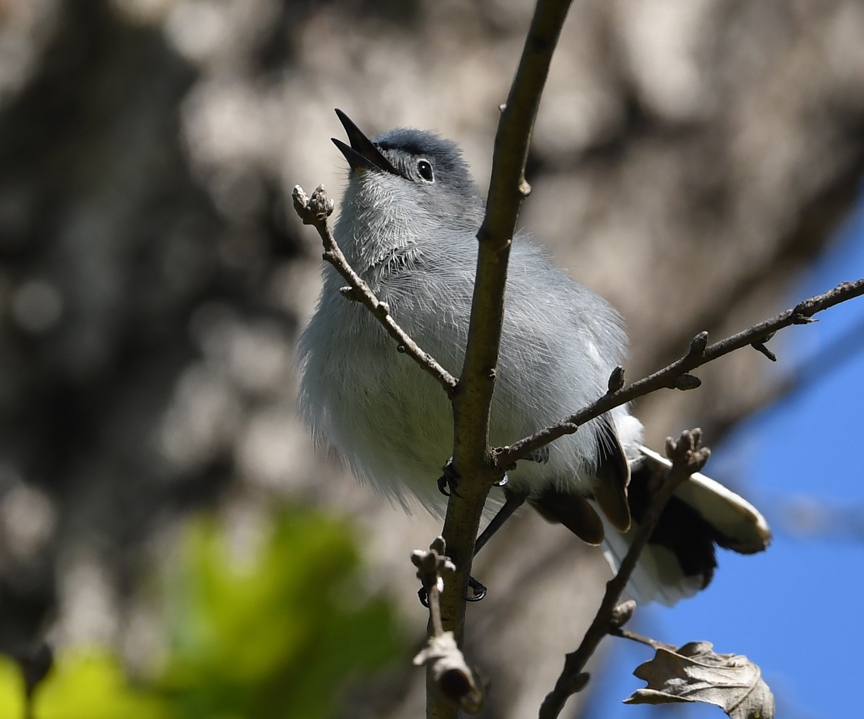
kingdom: Animalia
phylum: Chordata
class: Aves
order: Passeriformes
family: Polioptilidae
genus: Polioptila
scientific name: Polioptila caerulea
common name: Blue-gray gnatcatcher
